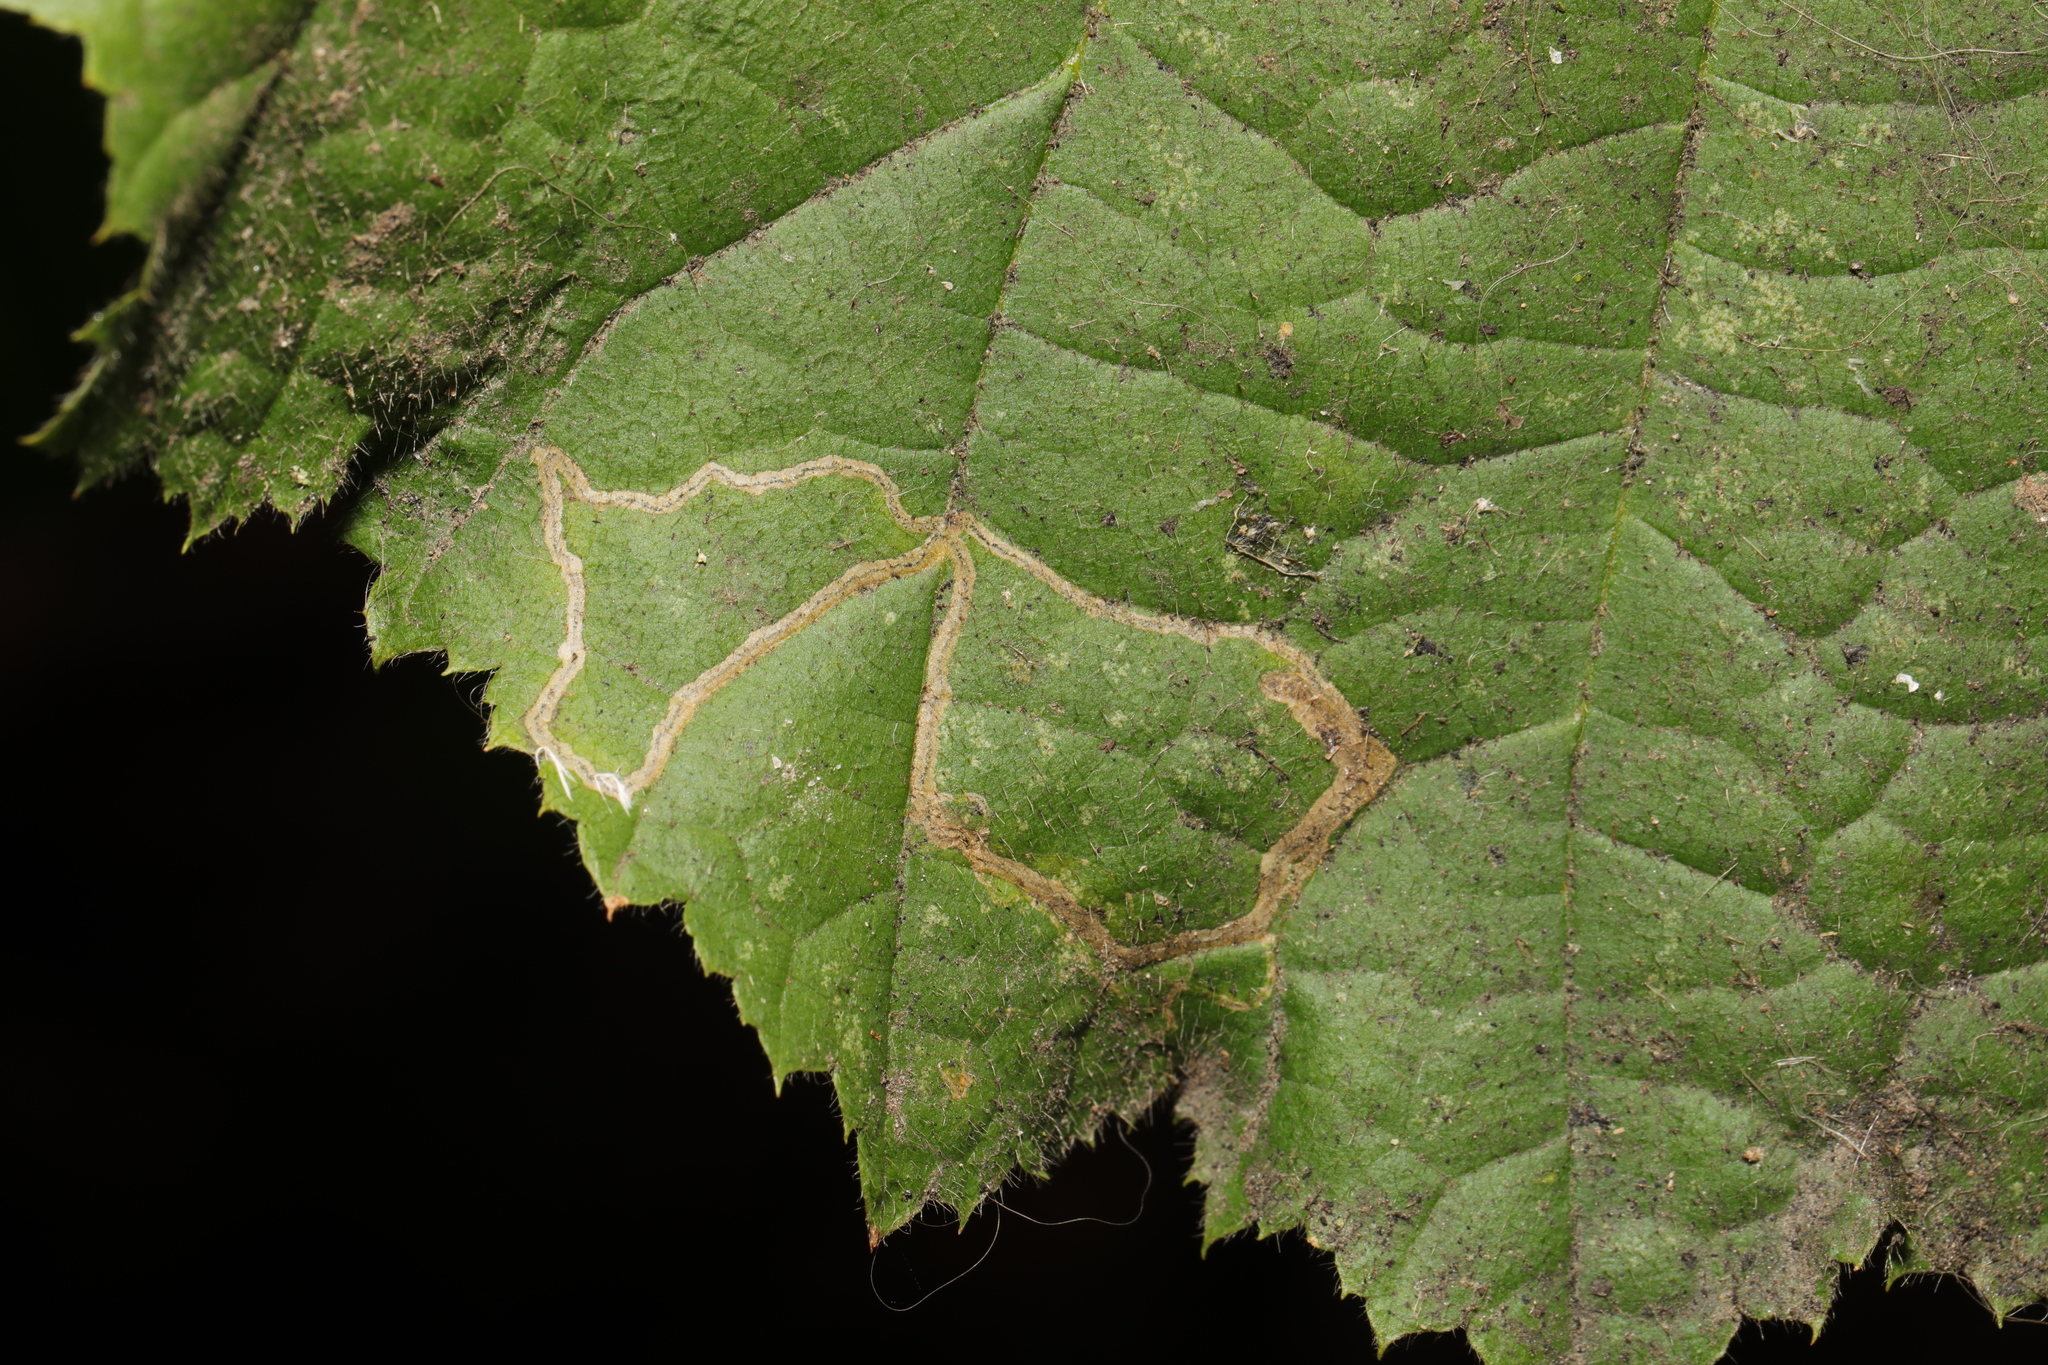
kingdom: Animalia
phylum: Arthropoda
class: Insecta
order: Lepidoptera
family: Nepticulidae
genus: Stigmella
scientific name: Stigmella microtheriella
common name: Nut-tree pigmy
